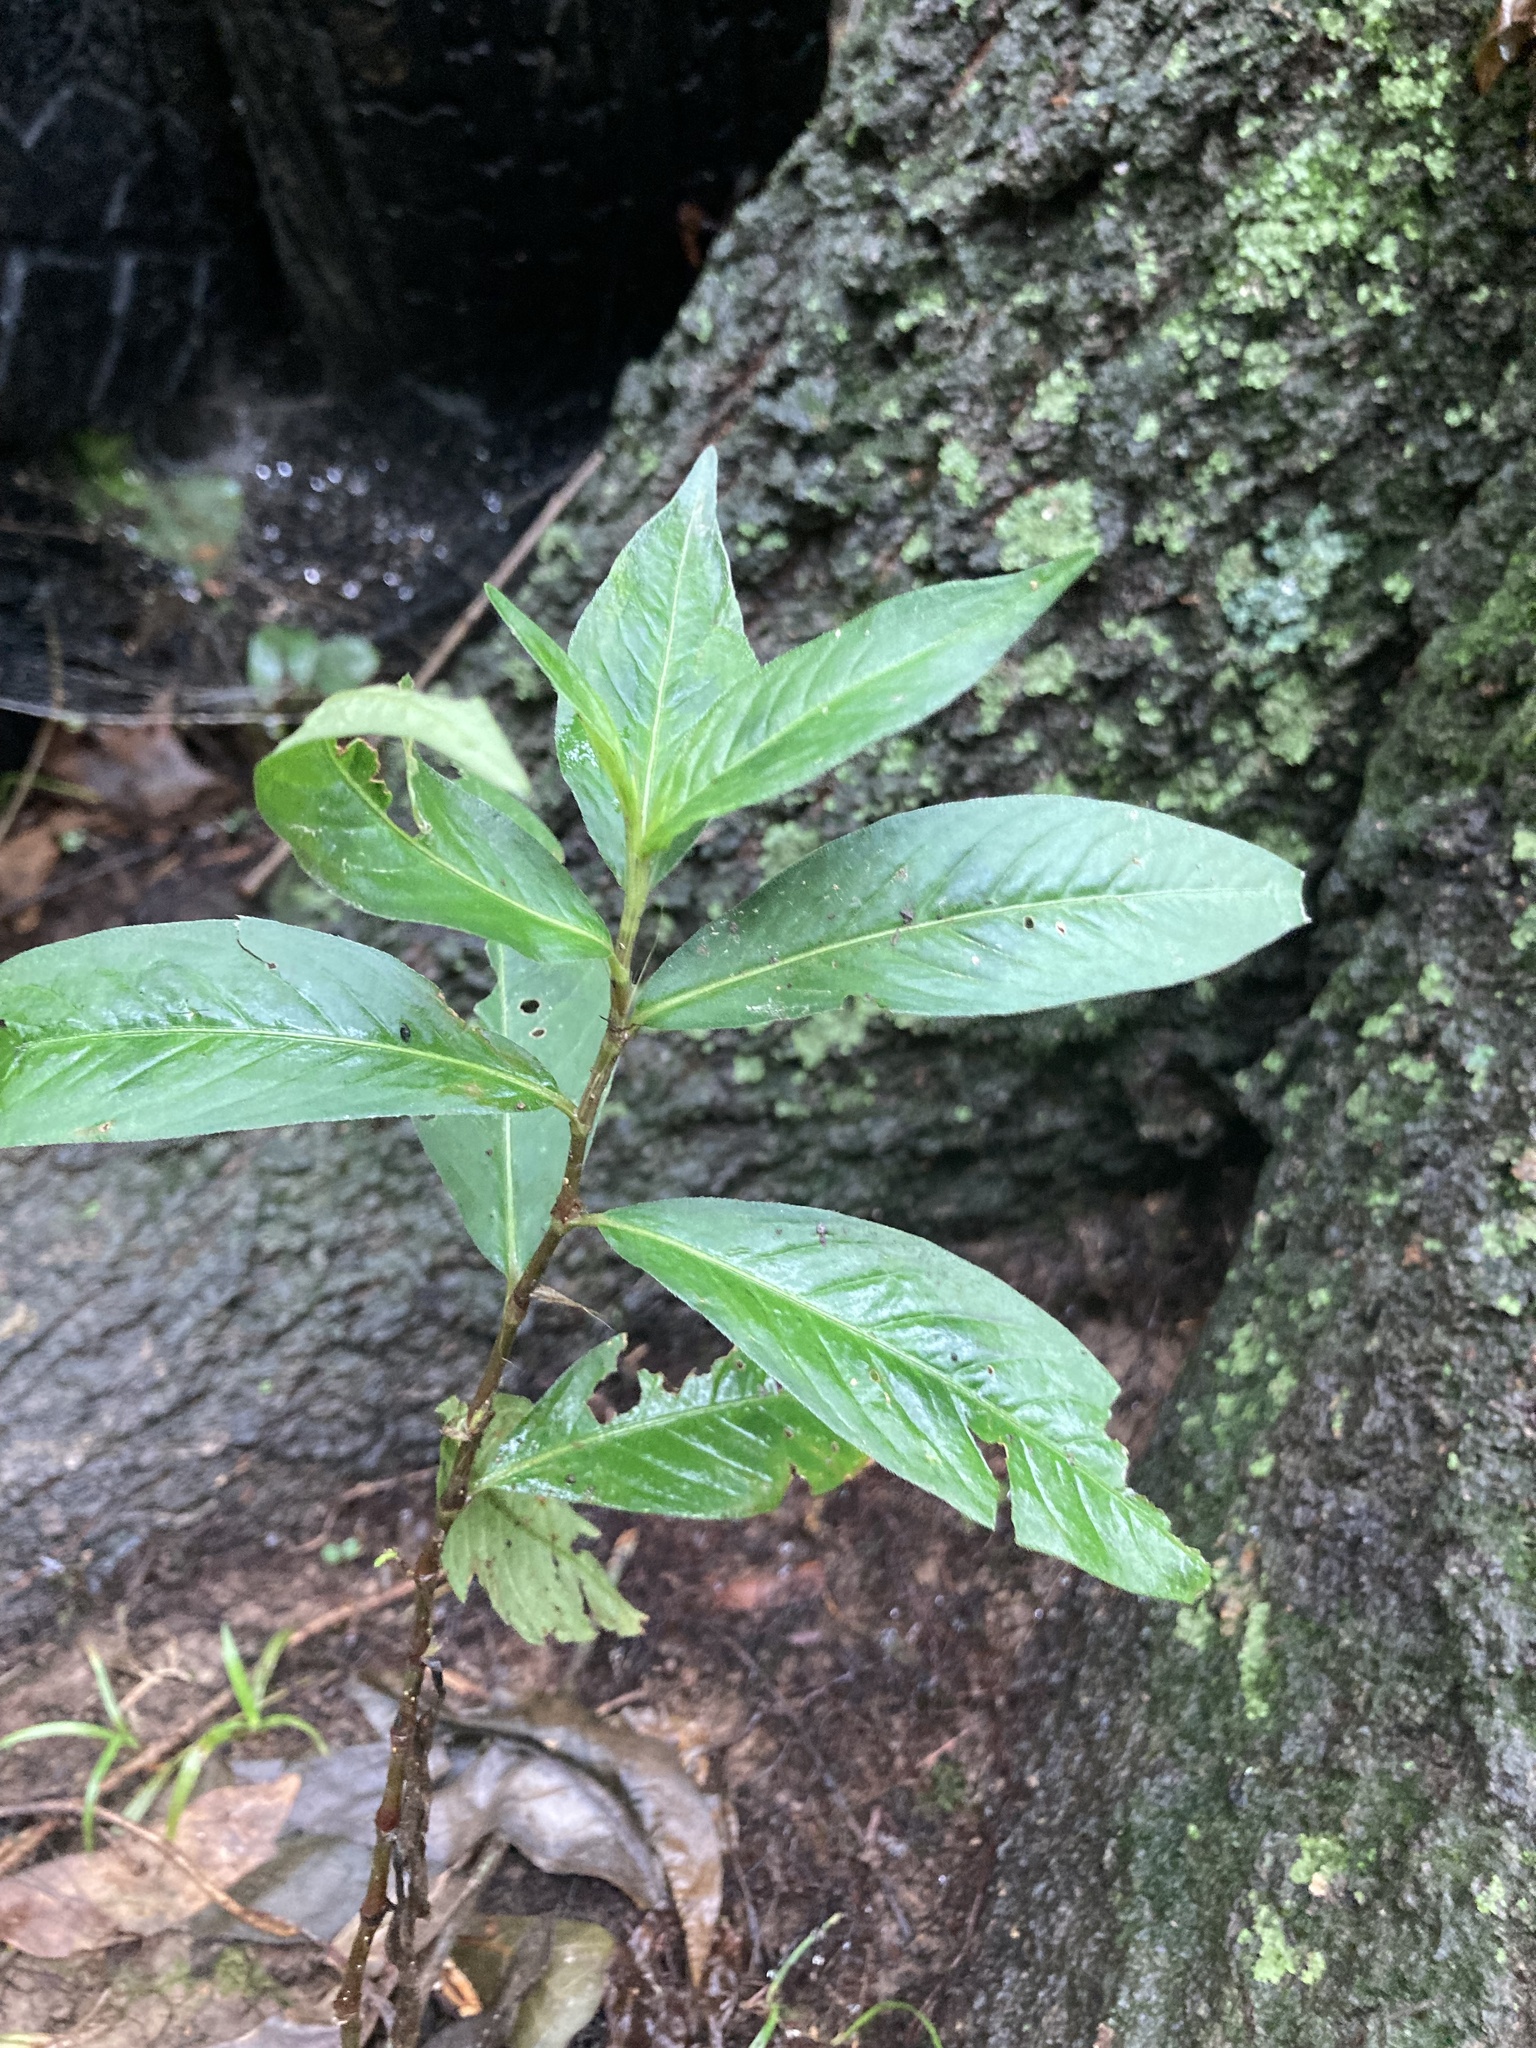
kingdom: Plantae
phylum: Tracheophyta
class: Magnoliopsida
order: Caryophyllales
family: Polygonaceae
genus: Persicaria
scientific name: Persicaria virginiana
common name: Jumpseed
